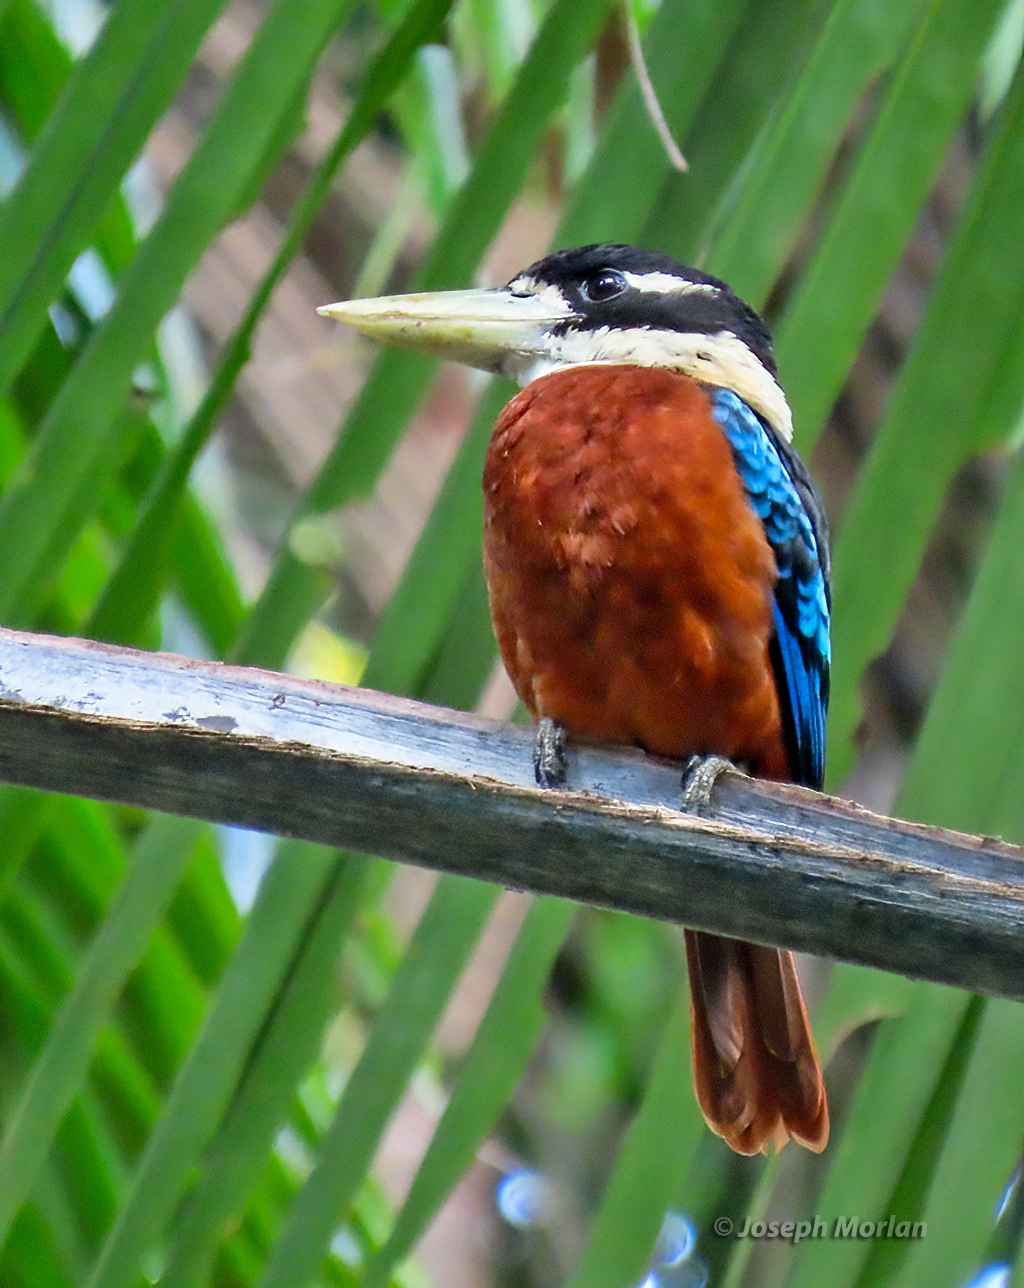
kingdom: Animalia
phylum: Chordata
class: Aves
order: Coraciiformes
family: Alcedinidae
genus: Dacelo
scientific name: Dacelo gaudichaud
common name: Rufous-bellied kookaburra
